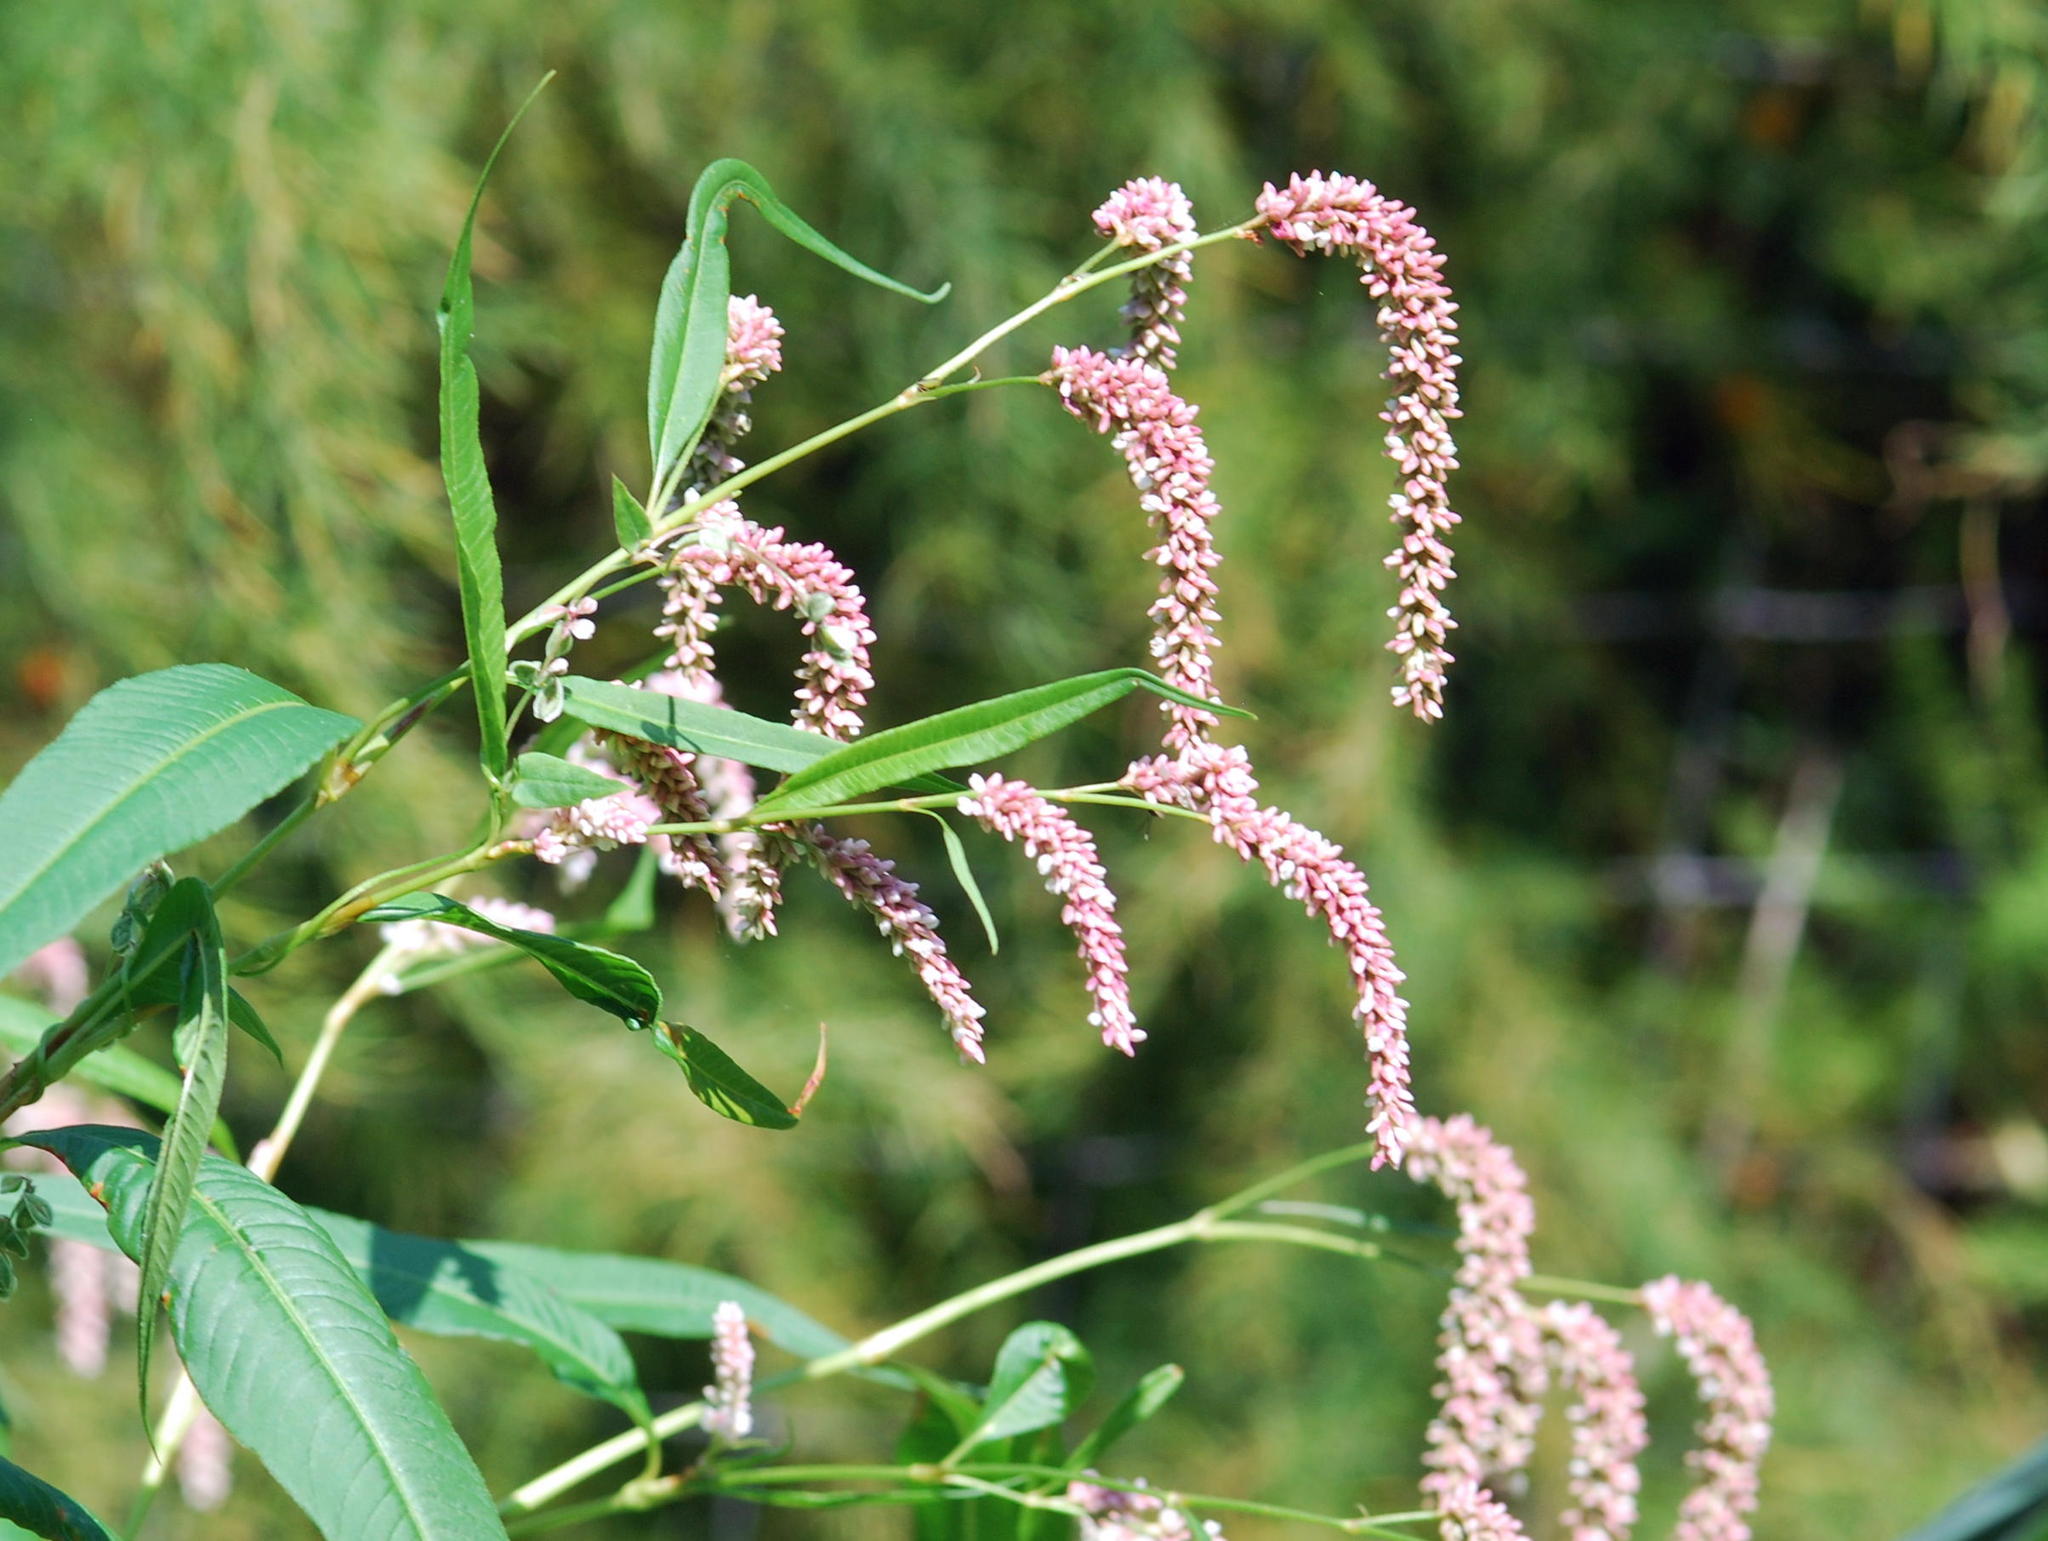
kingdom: Plantae
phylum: Tracheophyta
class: Magnoliopsida
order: Caryophyllales
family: Polygonaceae
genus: Persicaria
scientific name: Persicaria lapathifolia
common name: Curlytop knotweed
